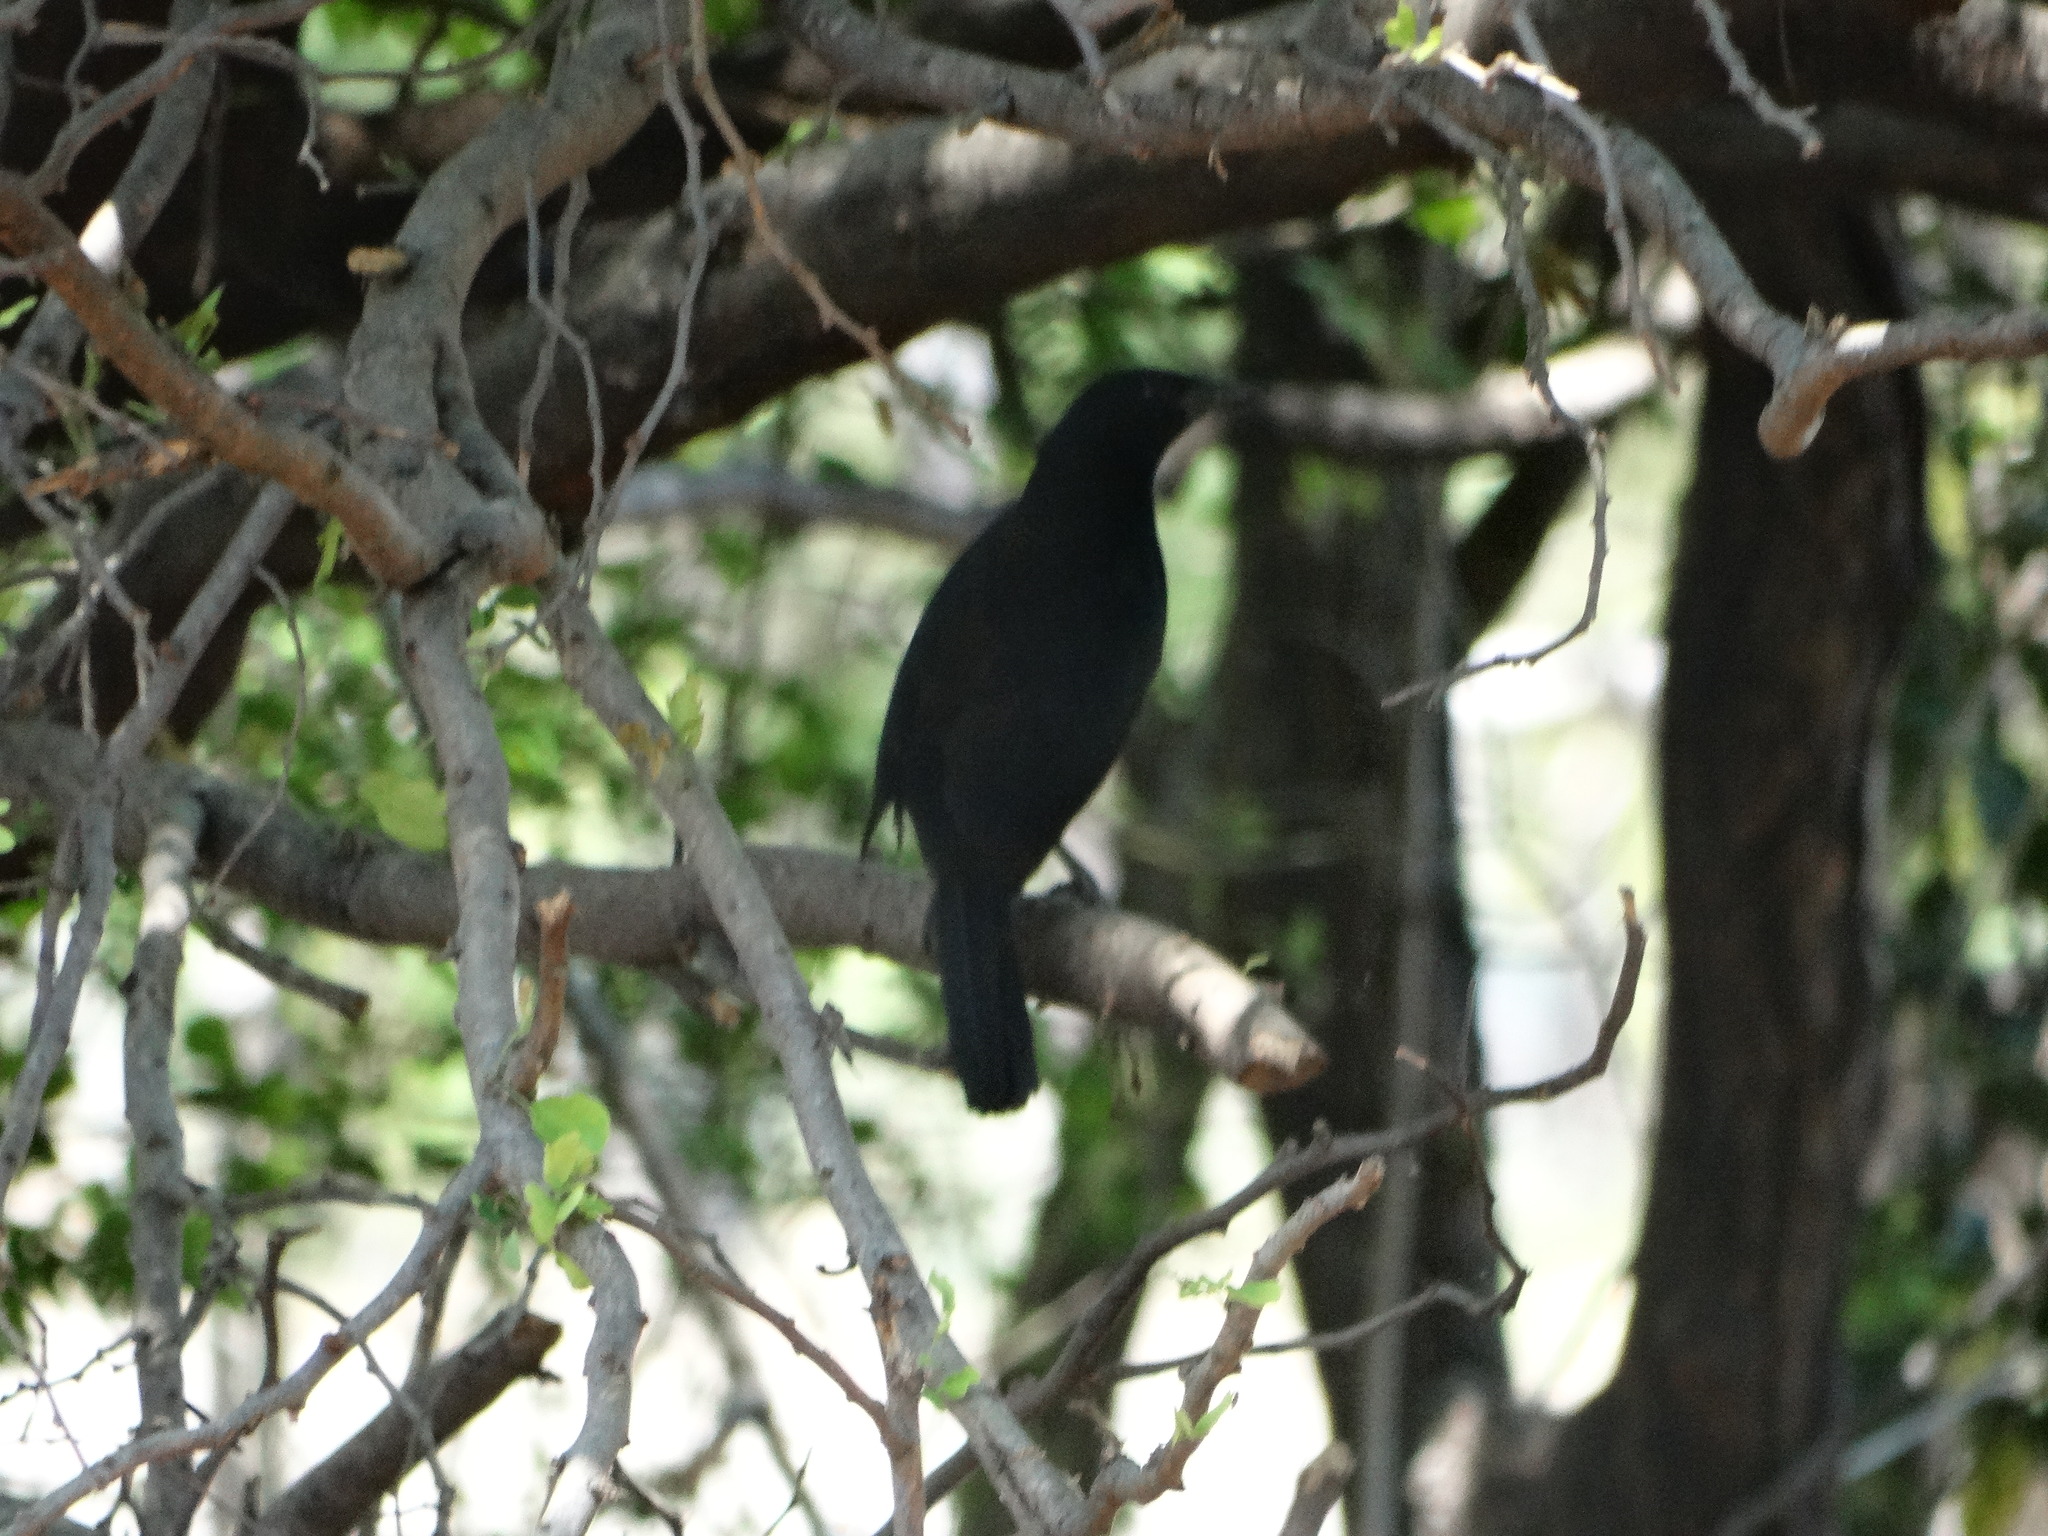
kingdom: Animalia
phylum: Chordata
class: Aves
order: Passeriformes
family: Icteridae
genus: Dives
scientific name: Dives dives
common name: Melodious blackbird
